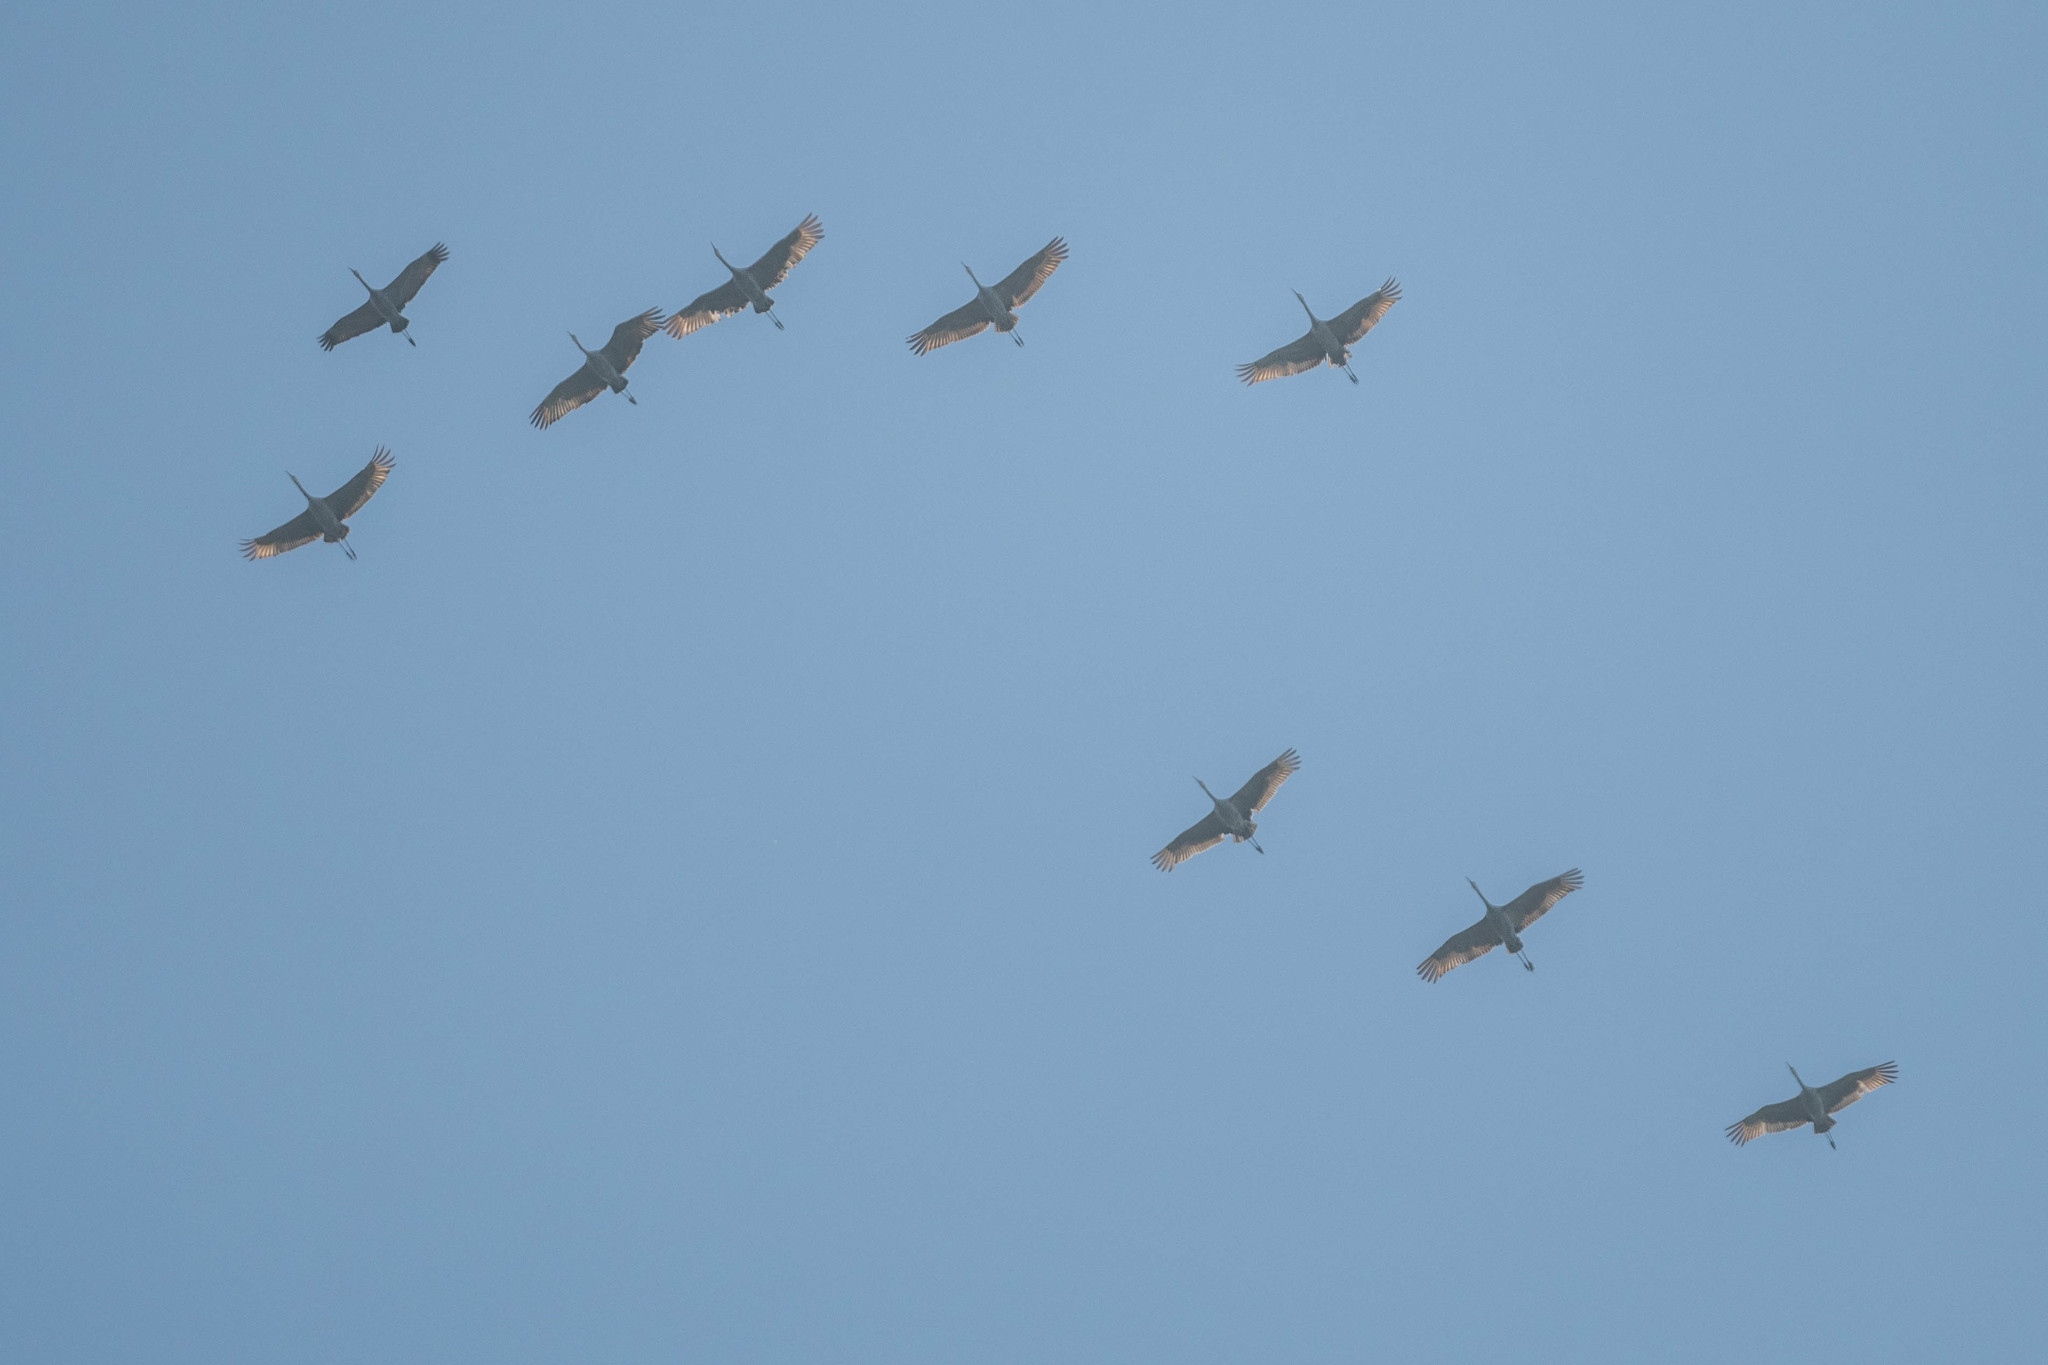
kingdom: Animalia
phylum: Chordata
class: Aves
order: Gruiformes
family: Gruidae
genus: Grus
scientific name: Grus canadensis
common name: Sandhill crane
